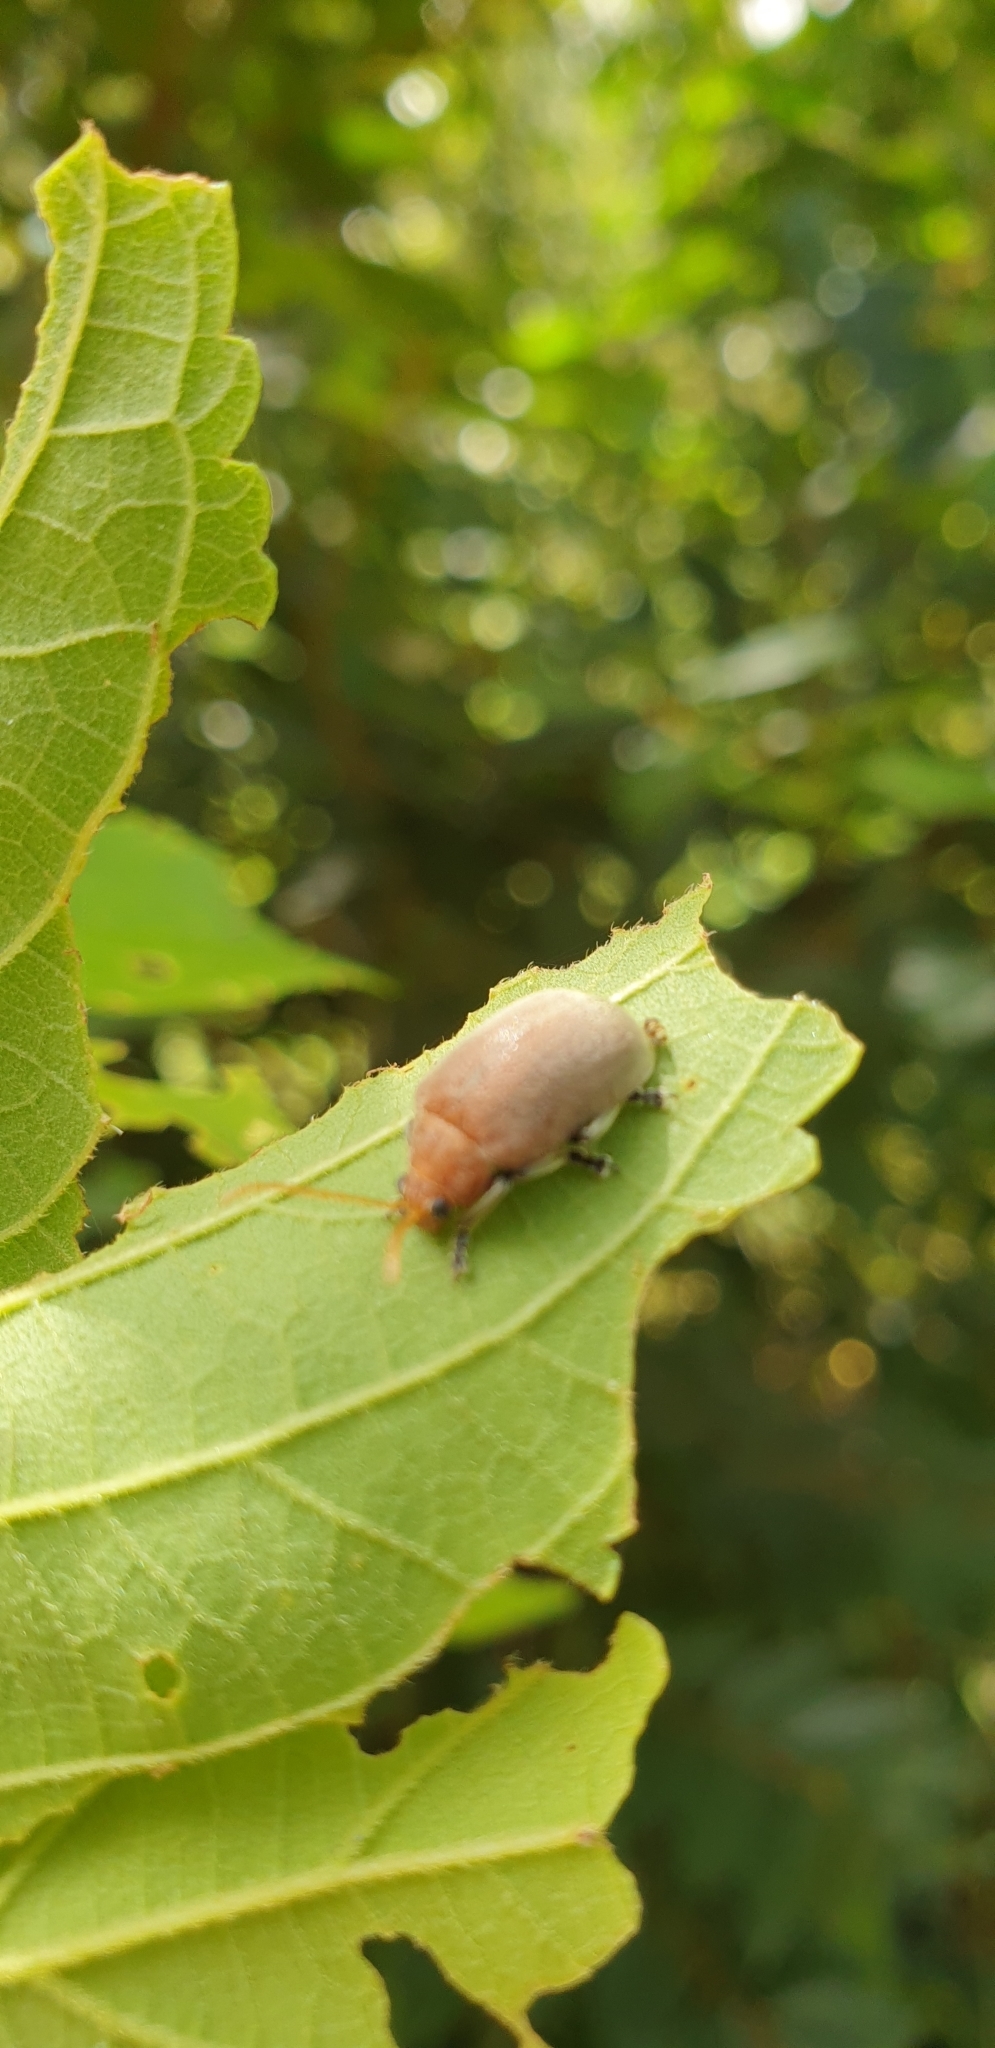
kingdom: Animalia
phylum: Arthropoda
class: Insecta
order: Coleoptera
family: Chrysomelidae
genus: Menippus
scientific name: Menippus
